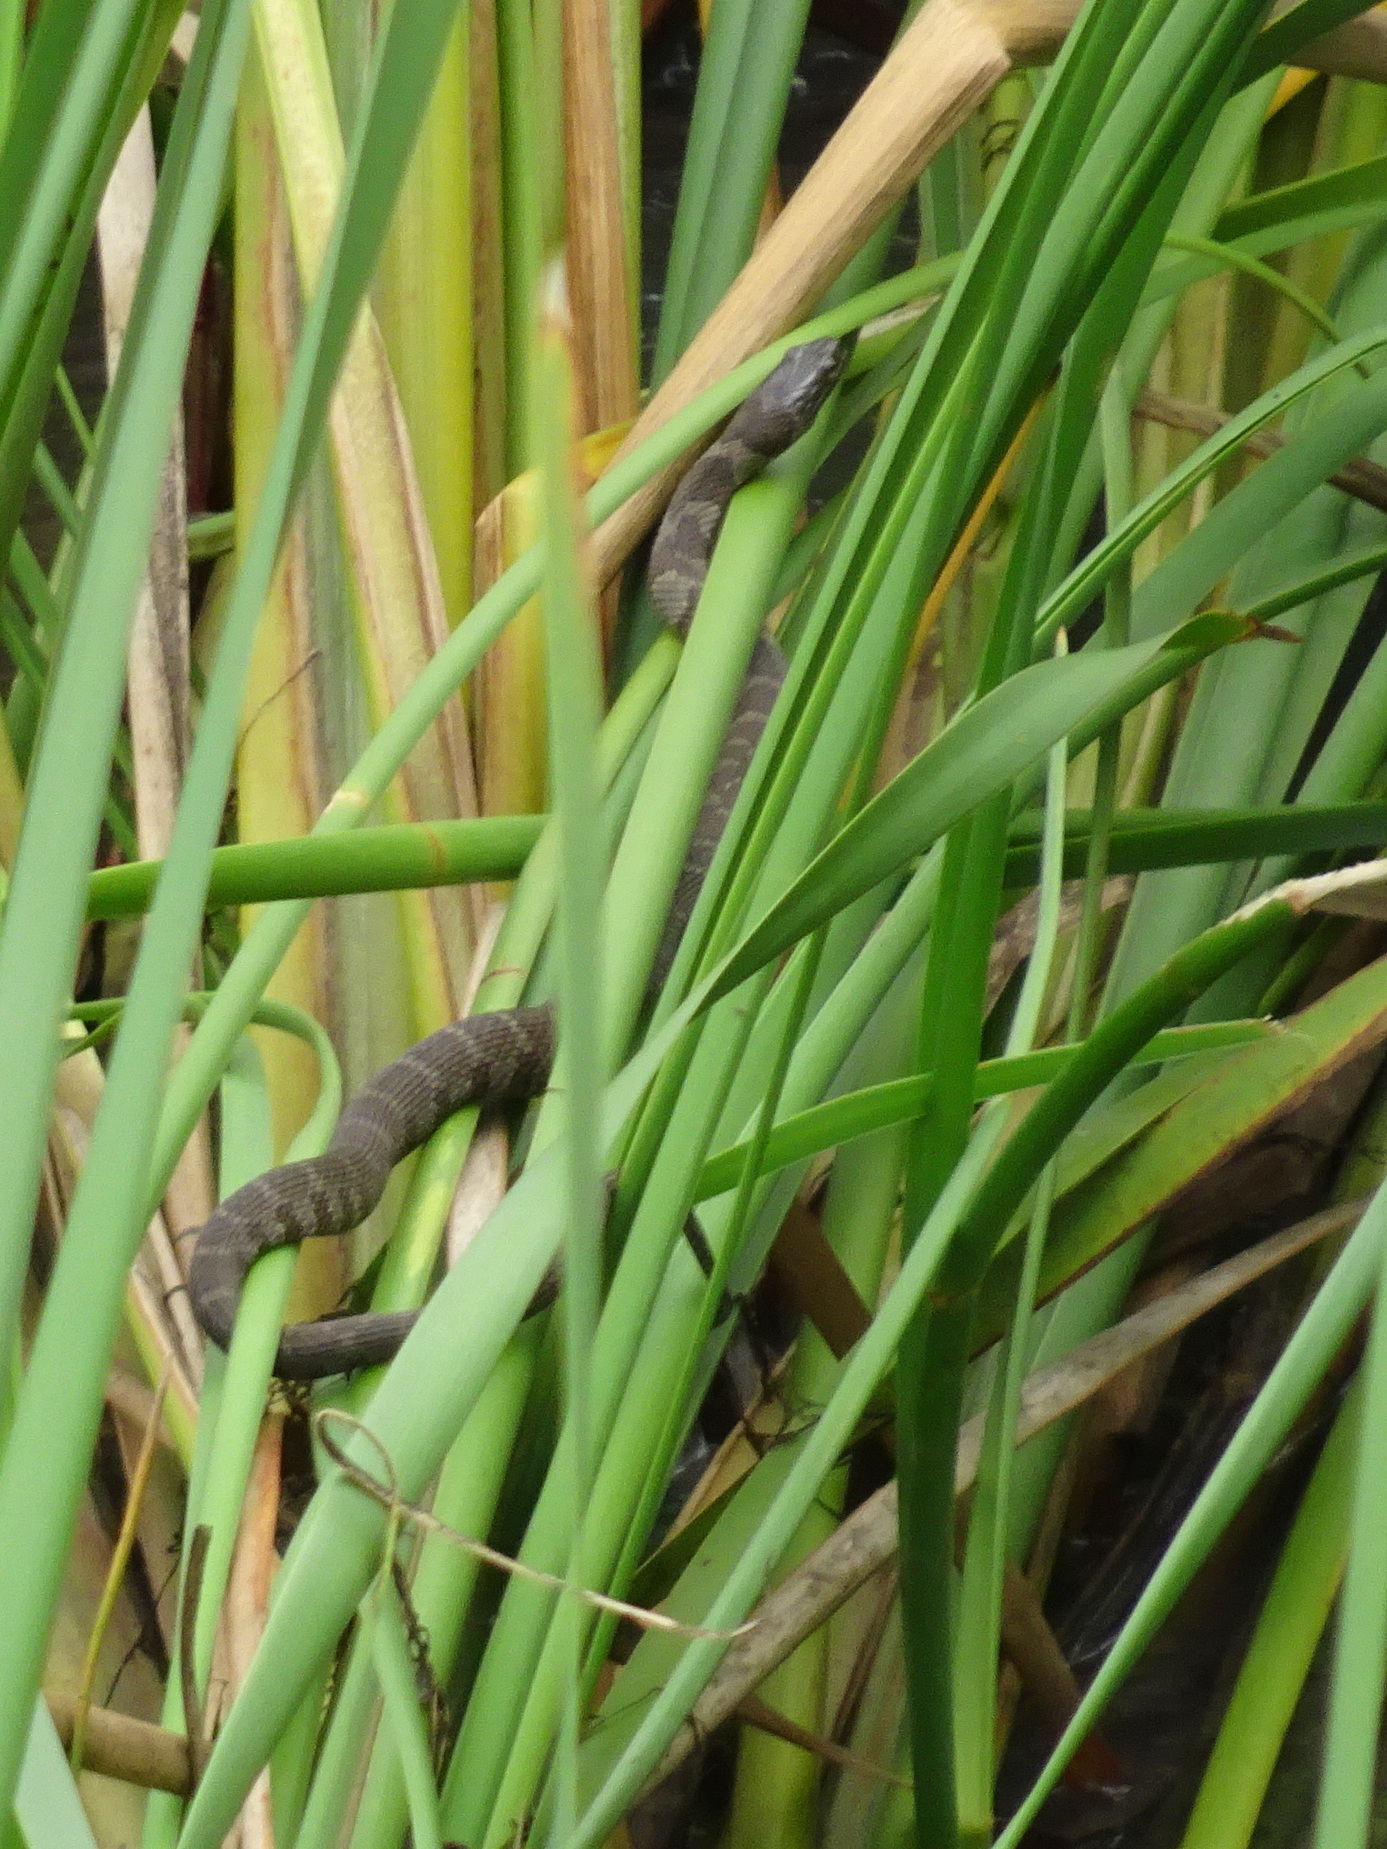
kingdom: Animalia
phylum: Chordata
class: Squamata
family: Colubridae
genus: Nerodia
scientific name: Nerodia sipedon
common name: Northern water snake
